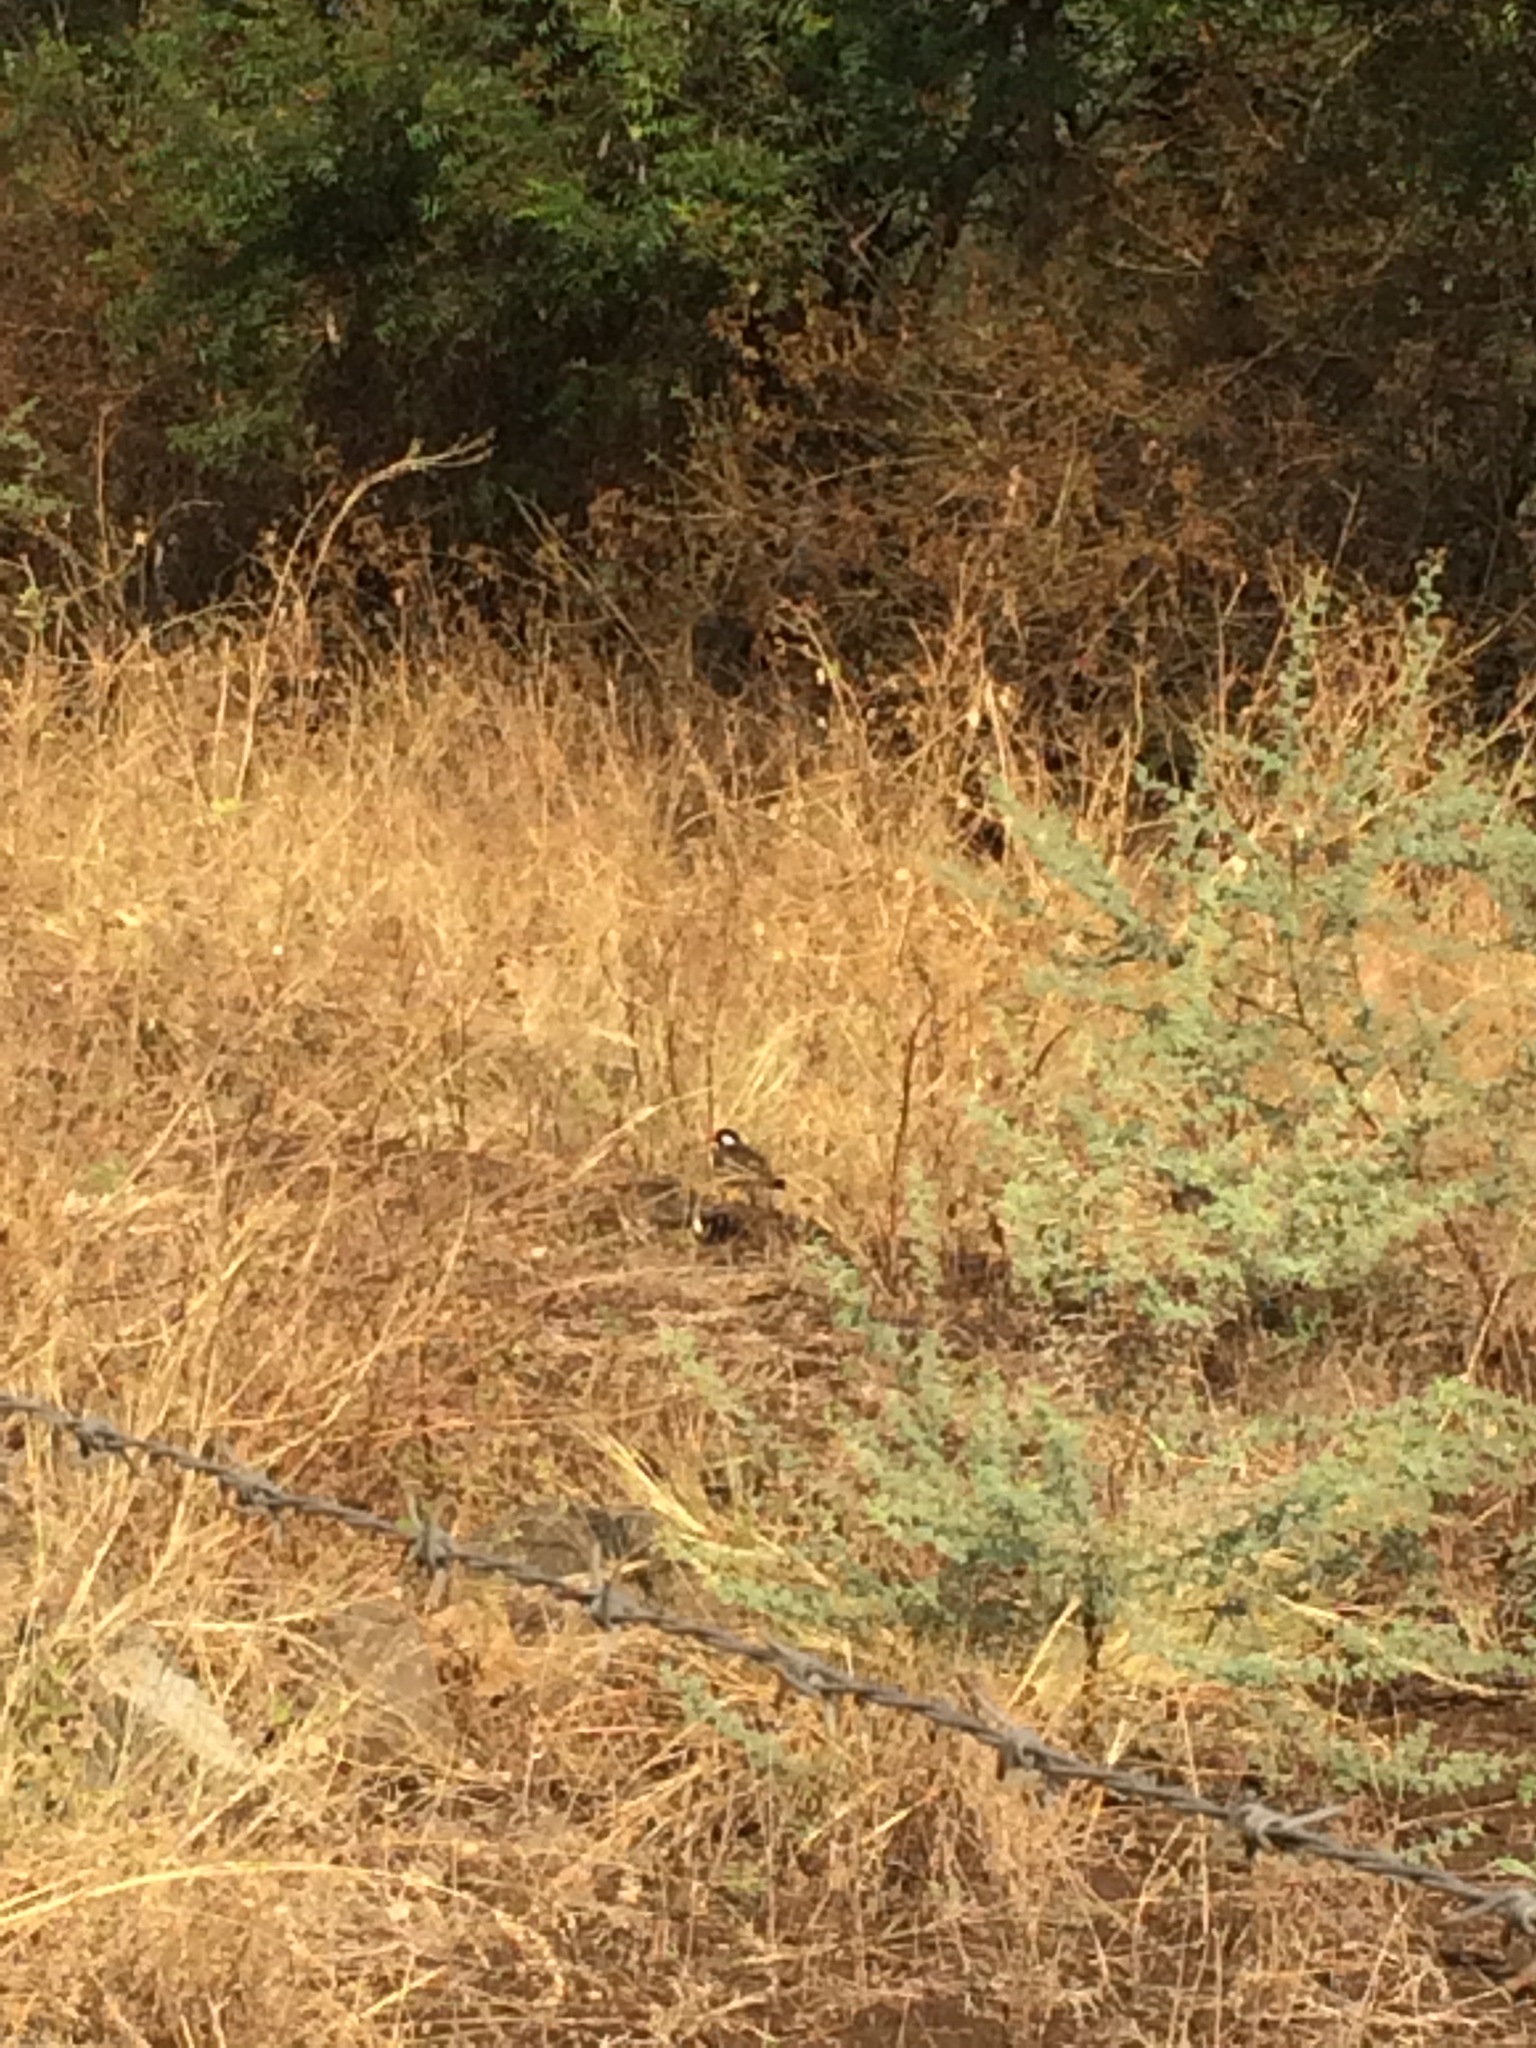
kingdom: Animalia
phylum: Chordata
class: Aves
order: Charadriiformes
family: Charadriidae
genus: Vanellus
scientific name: Vanellus indicus
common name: Red-wattled lapwing
